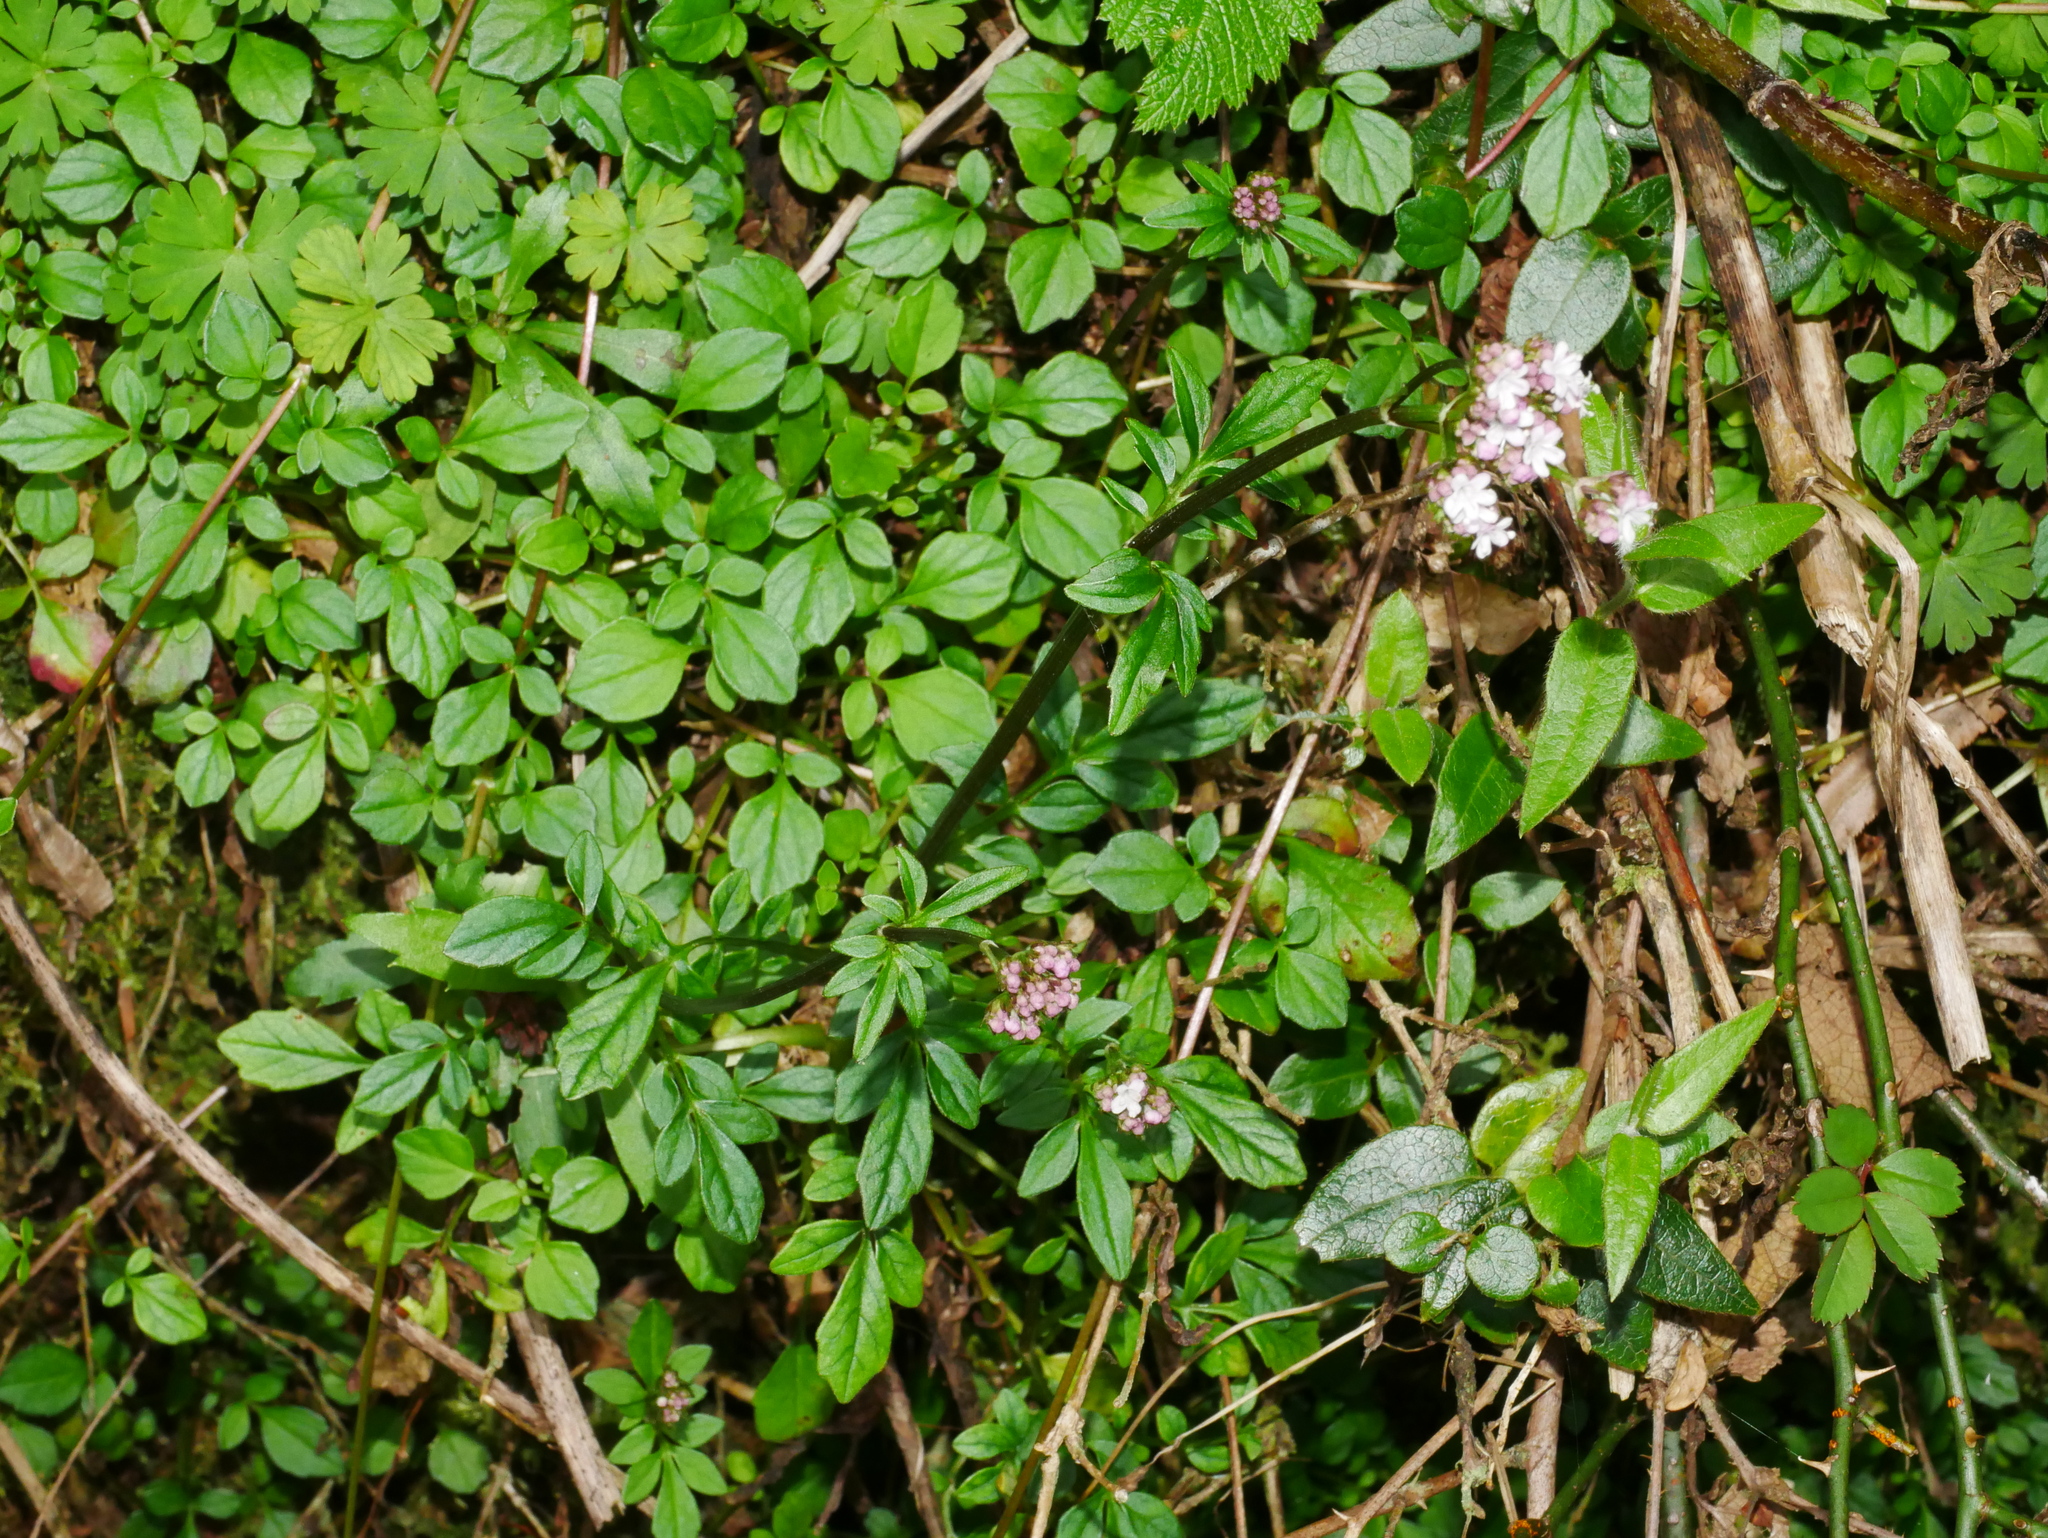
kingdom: Plantae
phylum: Tracheophyta
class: Magnoliopsida
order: Dipsacales
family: Caprifoliaceae
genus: Valeriana
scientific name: Valeriana kawakamii
